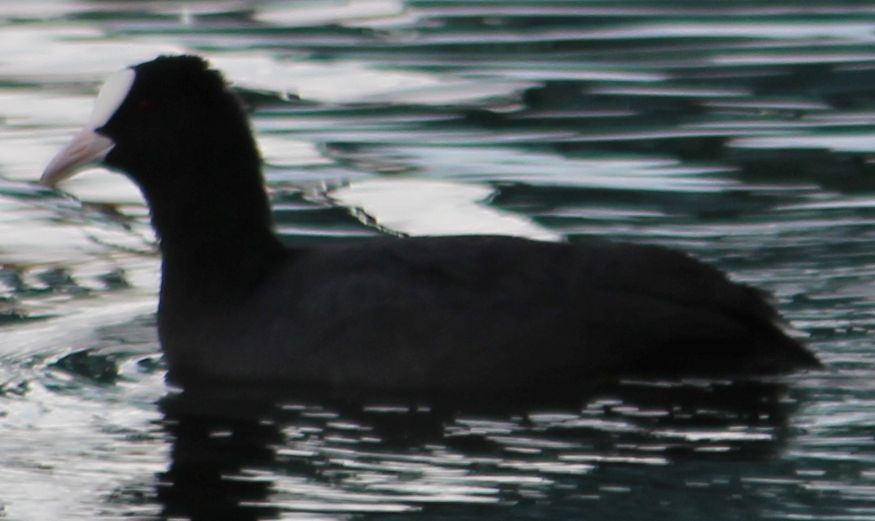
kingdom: Animalia
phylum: Chordata
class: Aves
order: Gruiformes
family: Rallidae
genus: Fulica
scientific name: Fulica atra
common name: Eurasian coot
